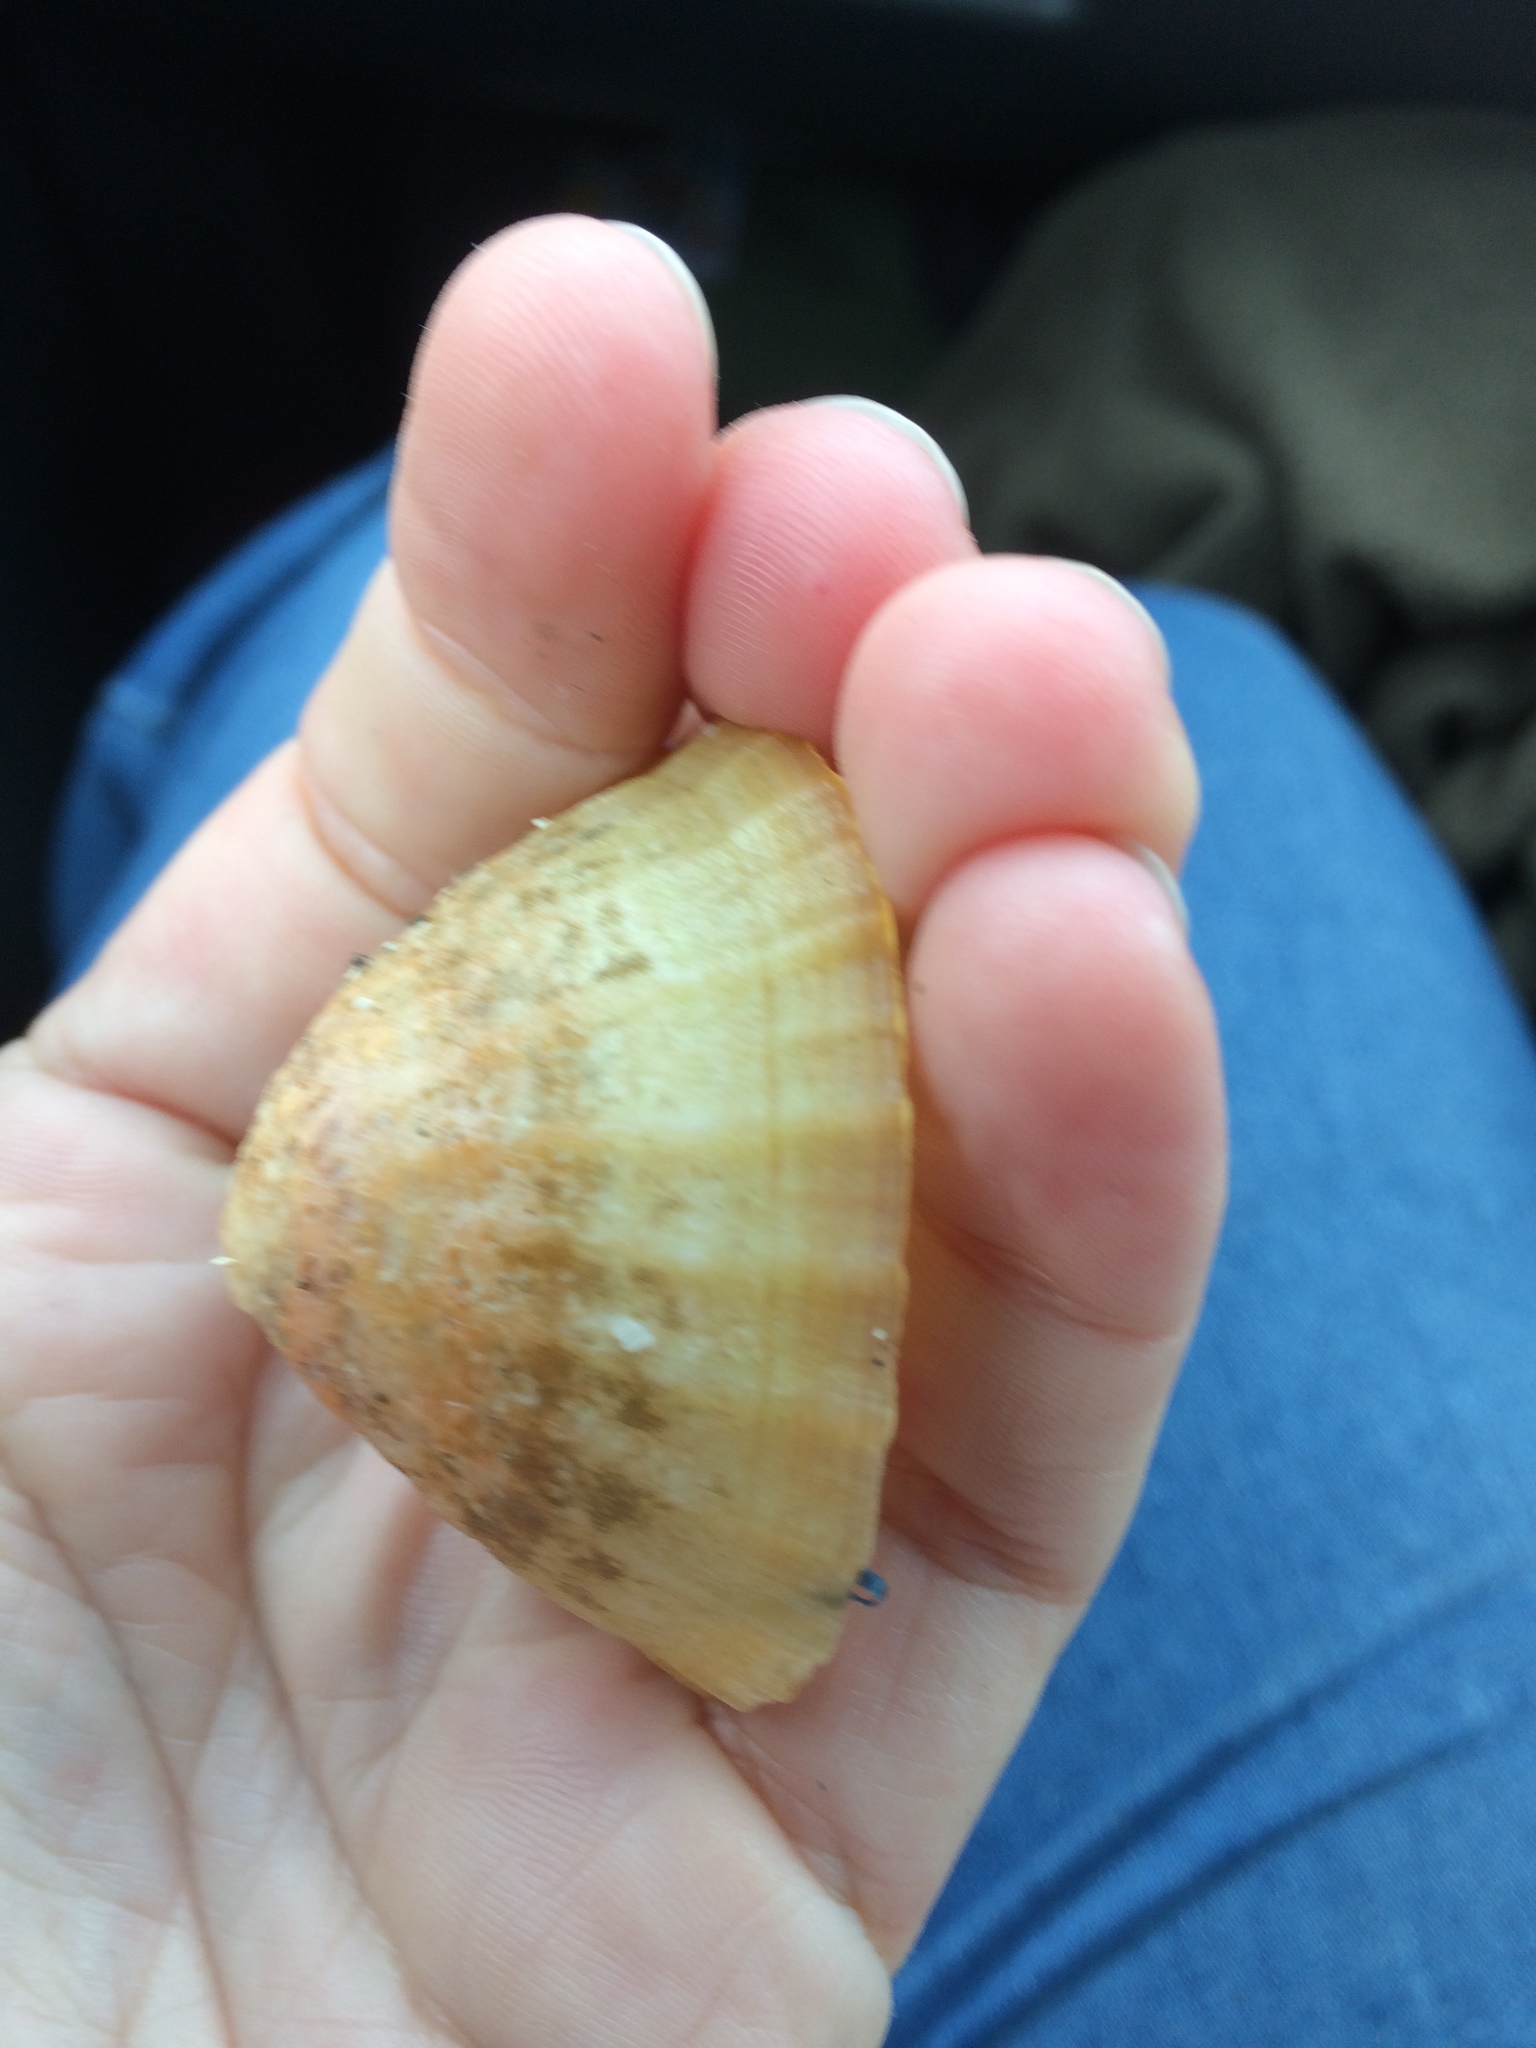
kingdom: Animalia
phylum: Mollusca
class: Gastropoda
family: Nacellidae
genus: Cellana
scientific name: Cellana flava
